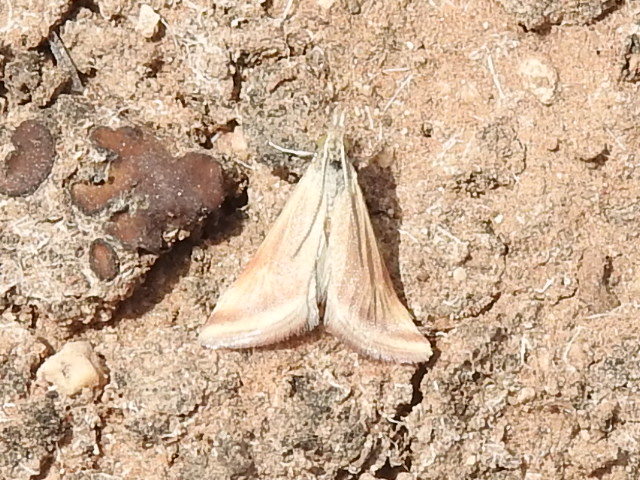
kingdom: Animalia
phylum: Arthropoda
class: Insecta
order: Lepidoptera
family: Crambidae
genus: Microtheoris
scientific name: Microtheoris ophionalis
